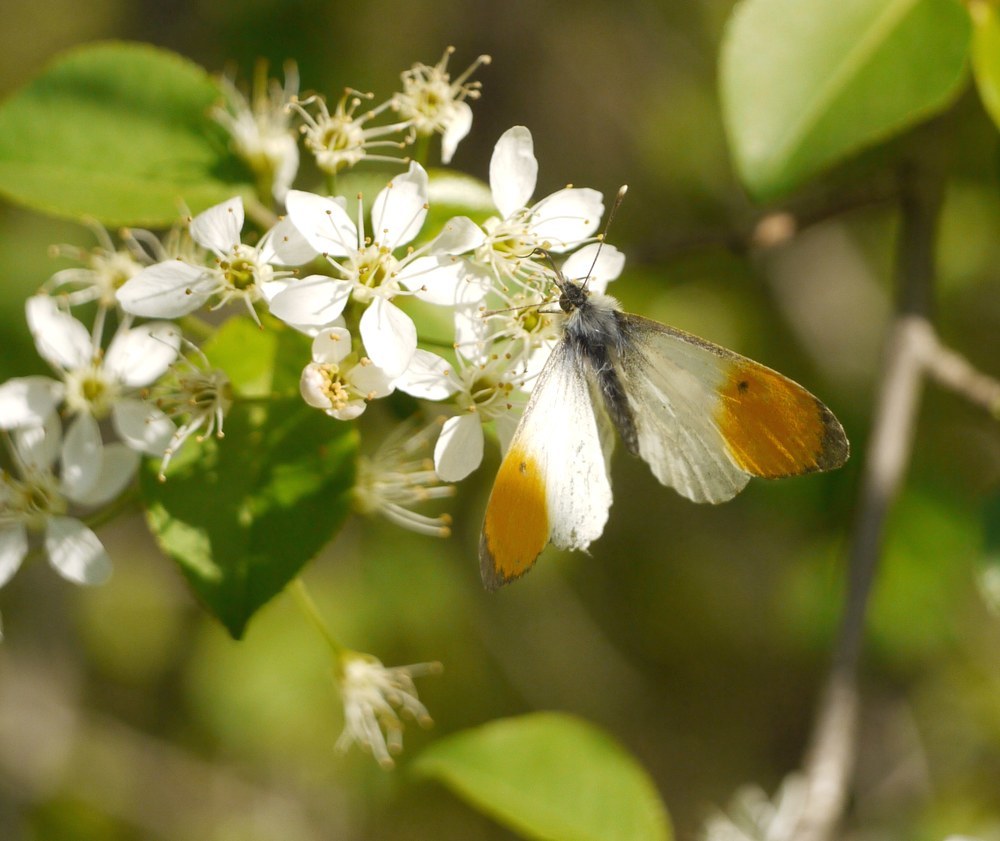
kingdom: Animalia
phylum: Arthropoda
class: Insecta
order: Lepidoptera
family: Pieridae
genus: Anthocharis
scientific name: Anthocharis cardamines
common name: Orange-tip
